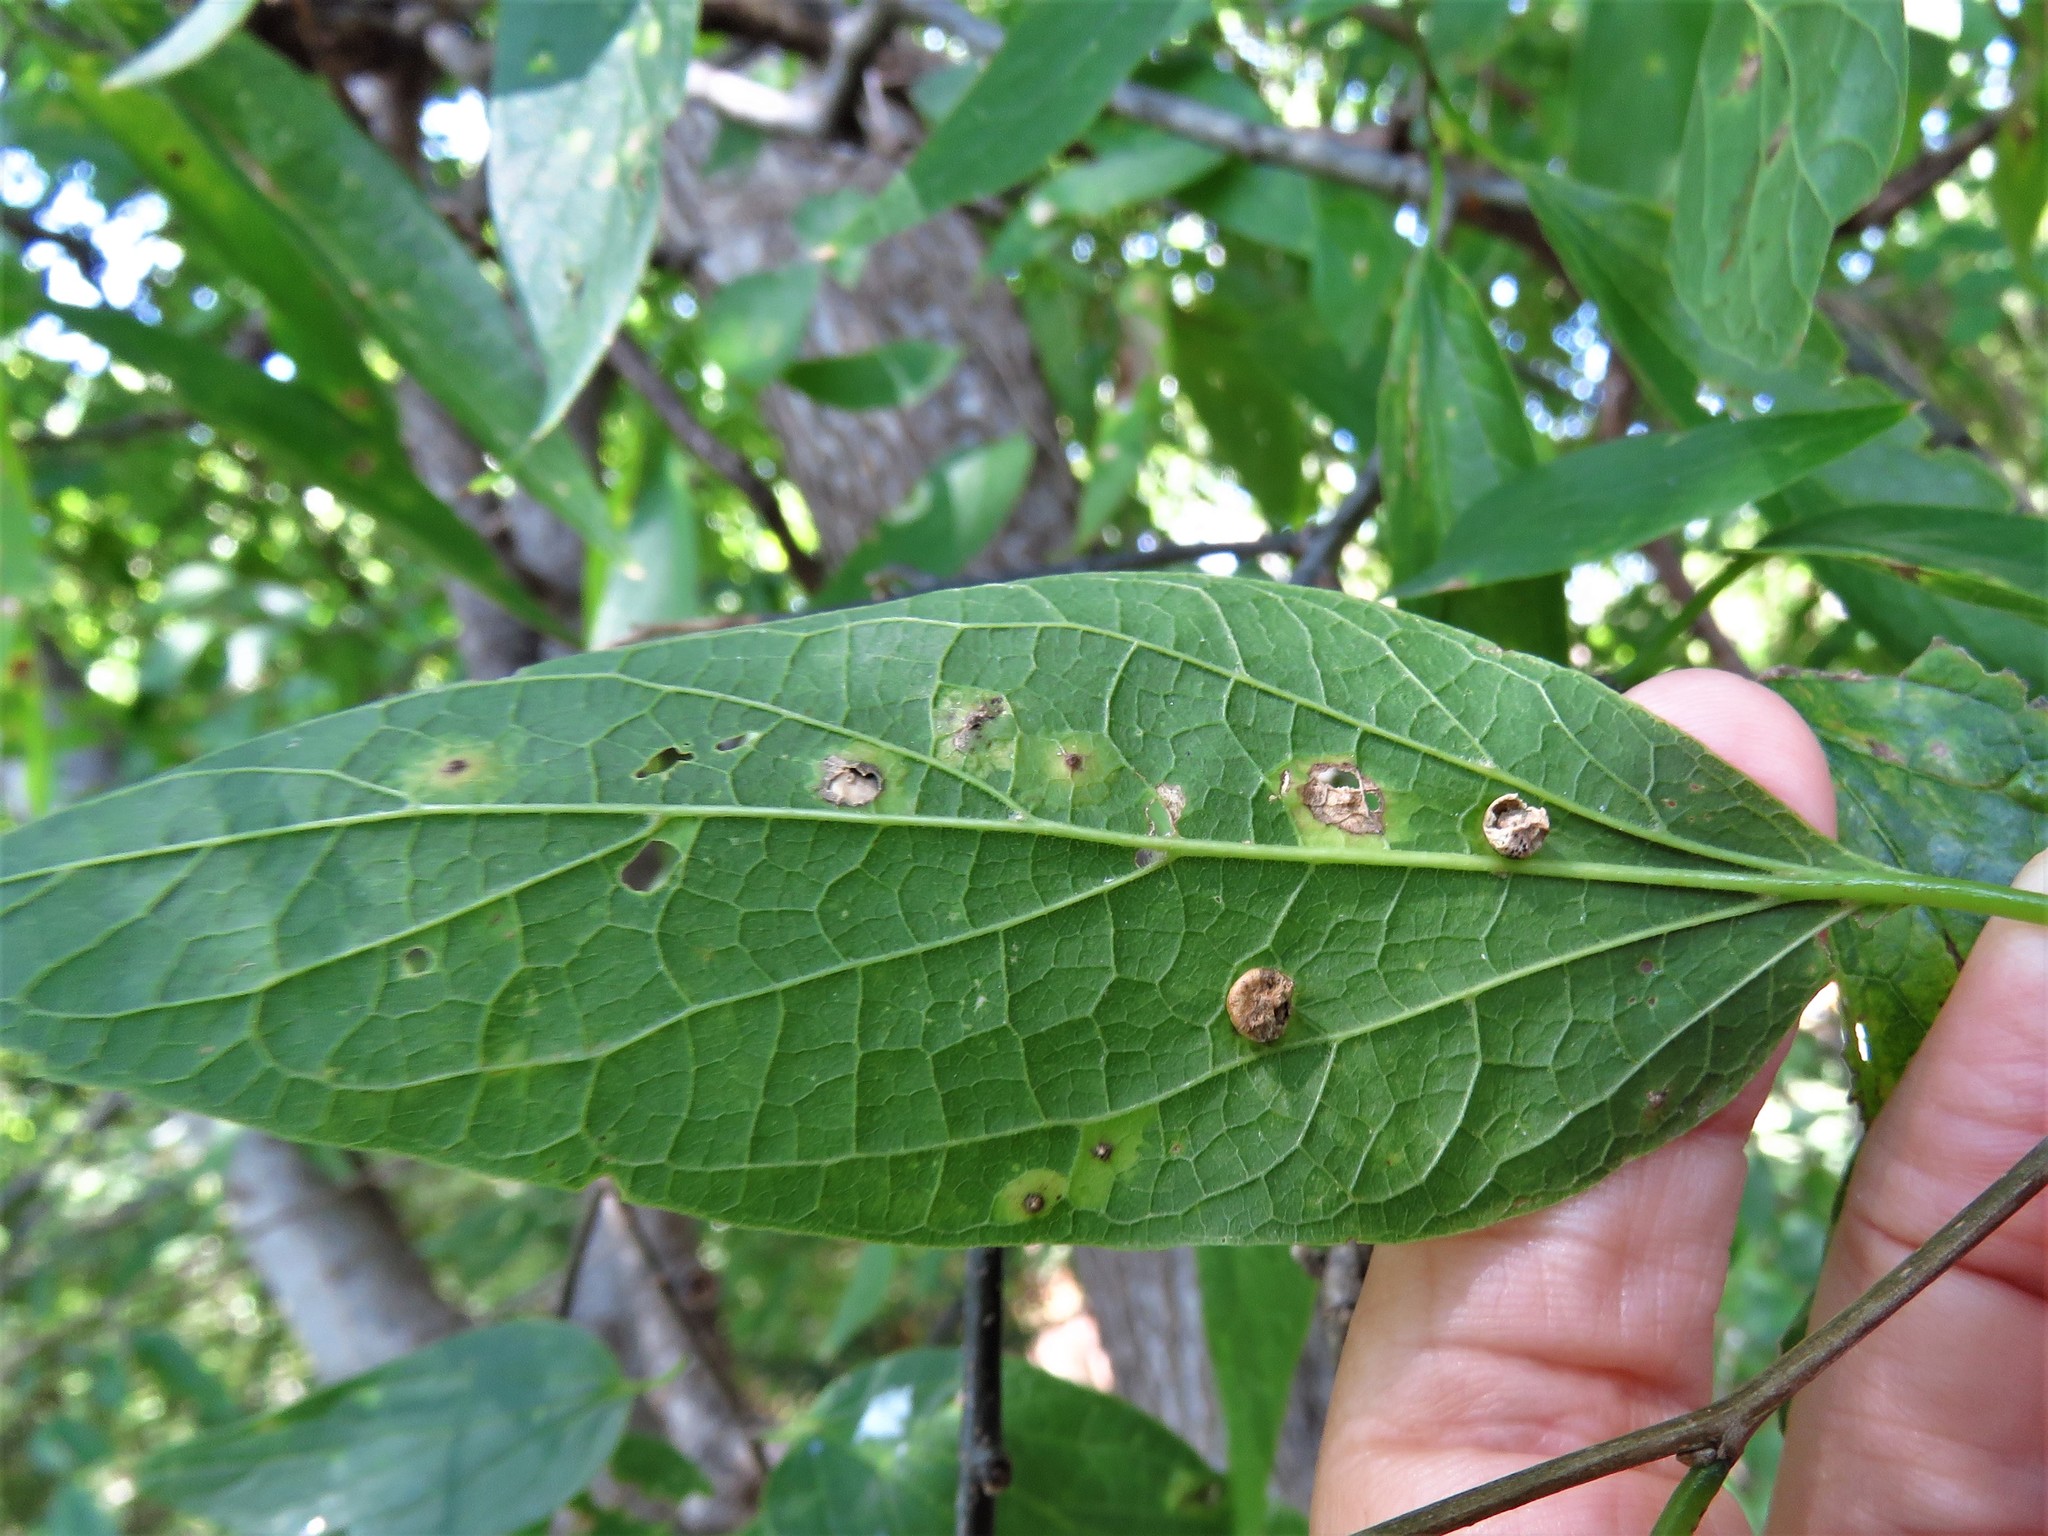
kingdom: Animalia
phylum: Arthropoda
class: Insecta
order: Hemiptera
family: Aphalaridae
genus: Pachypsylla
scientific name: Pachypsylla celtidismamma
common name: Hackberry nipplegall psyllid
